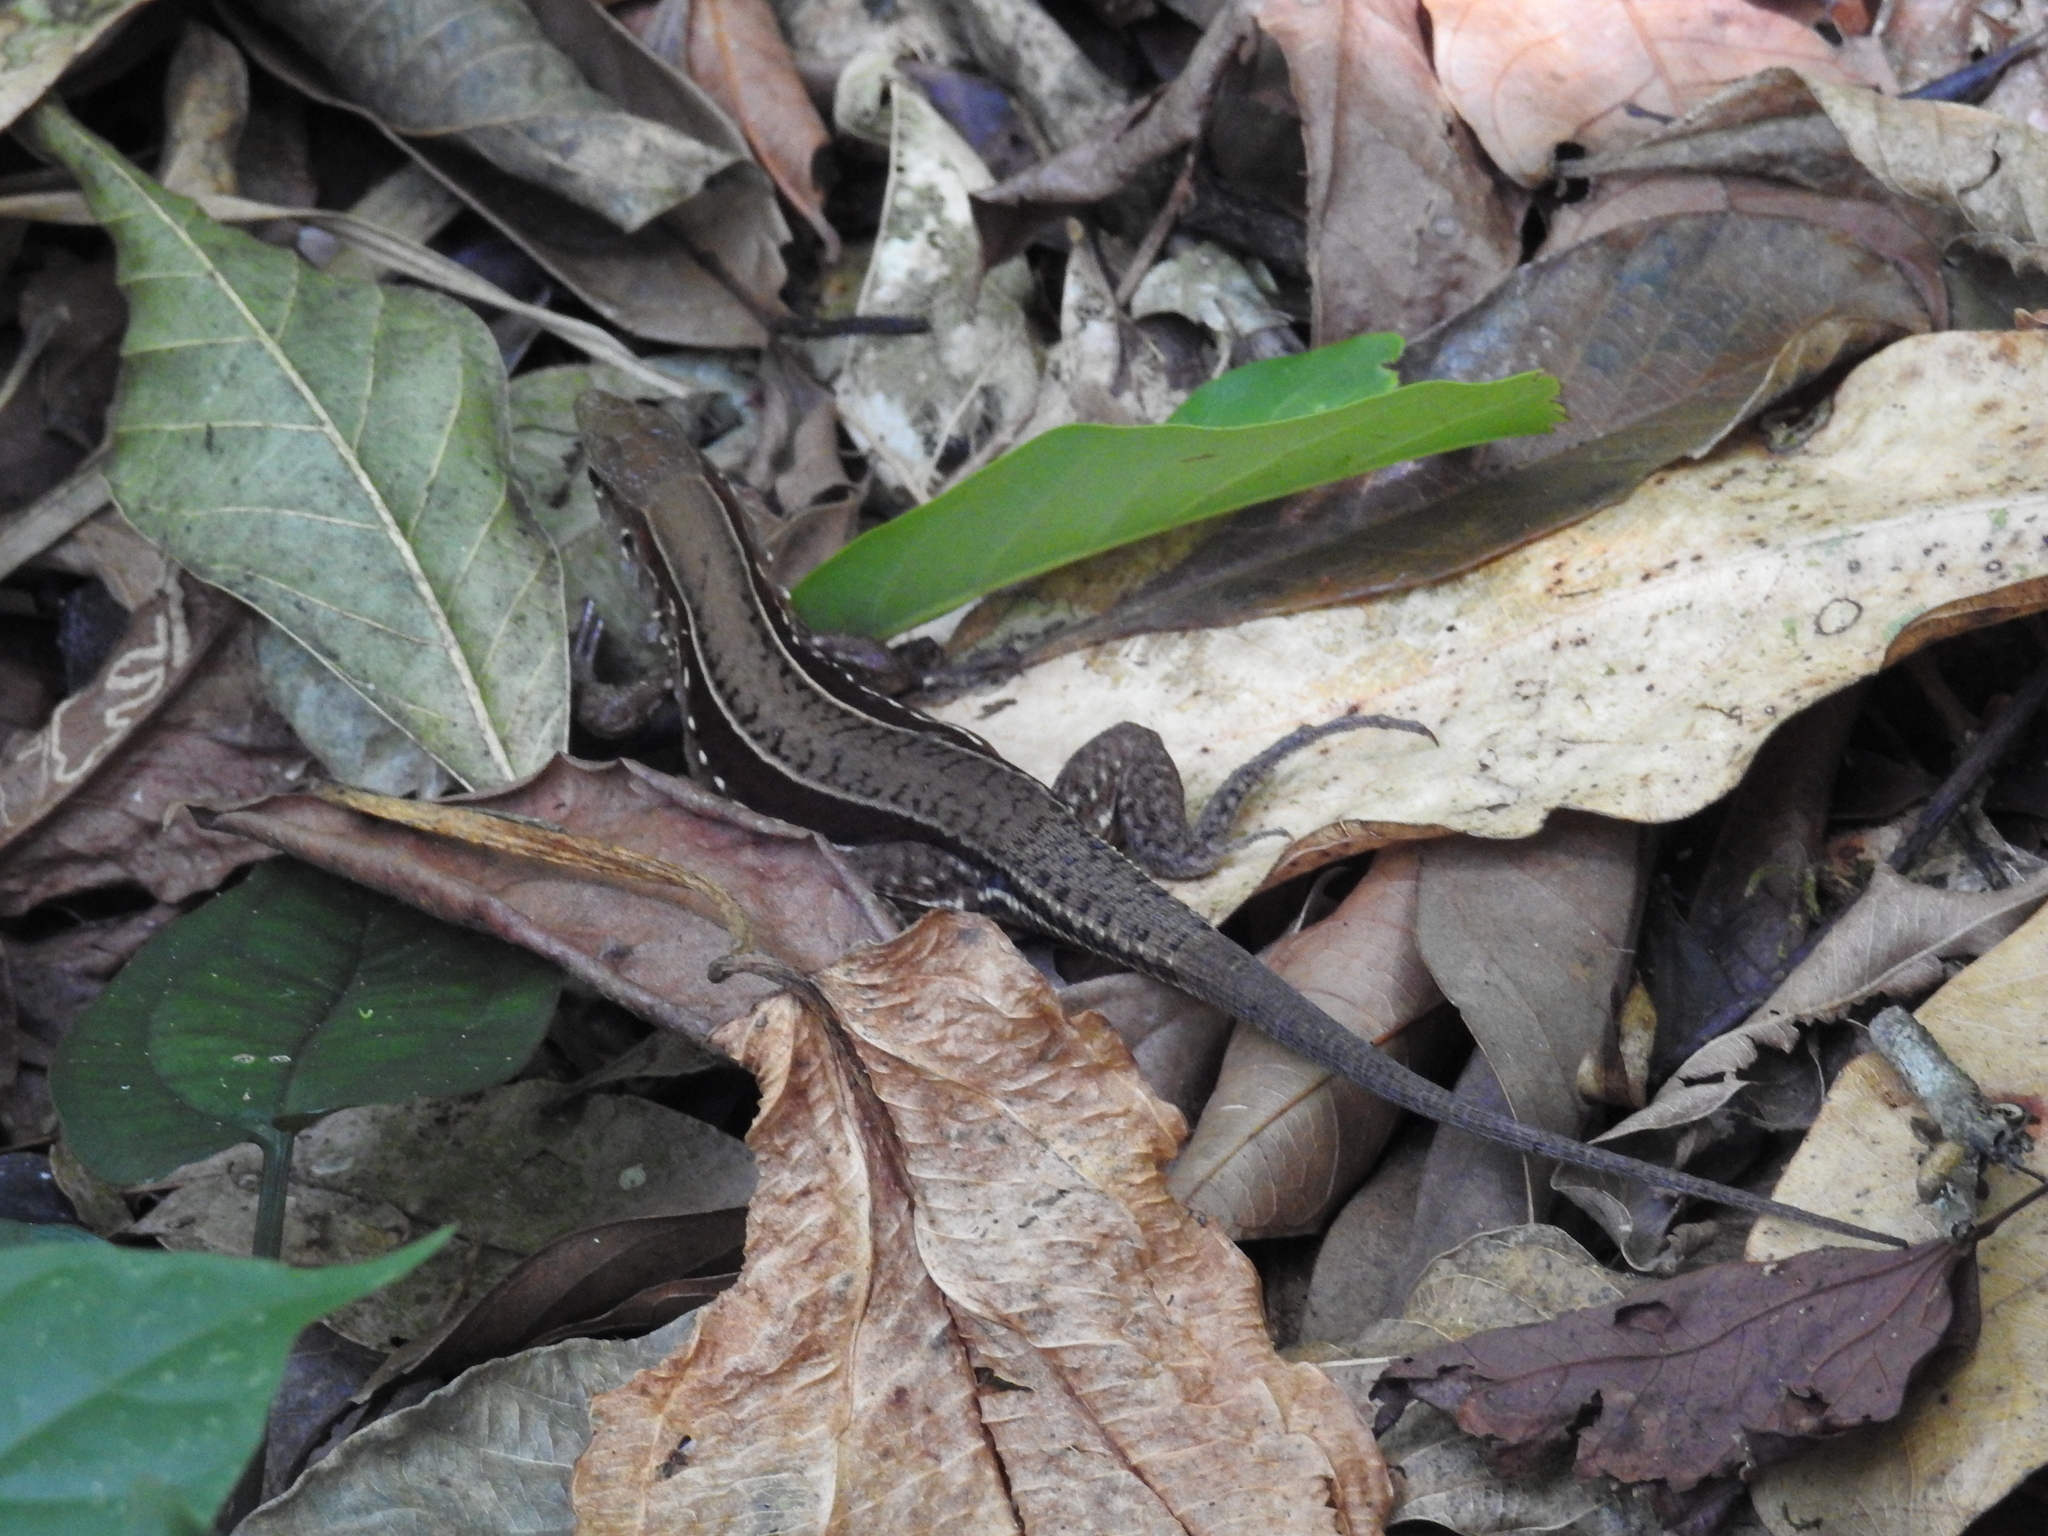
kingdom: Animalia
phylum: Chordata
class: Squamata
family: Teiidae
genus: Holcosus
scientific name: Holcosus undulatus
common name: Rainbow ameiva
